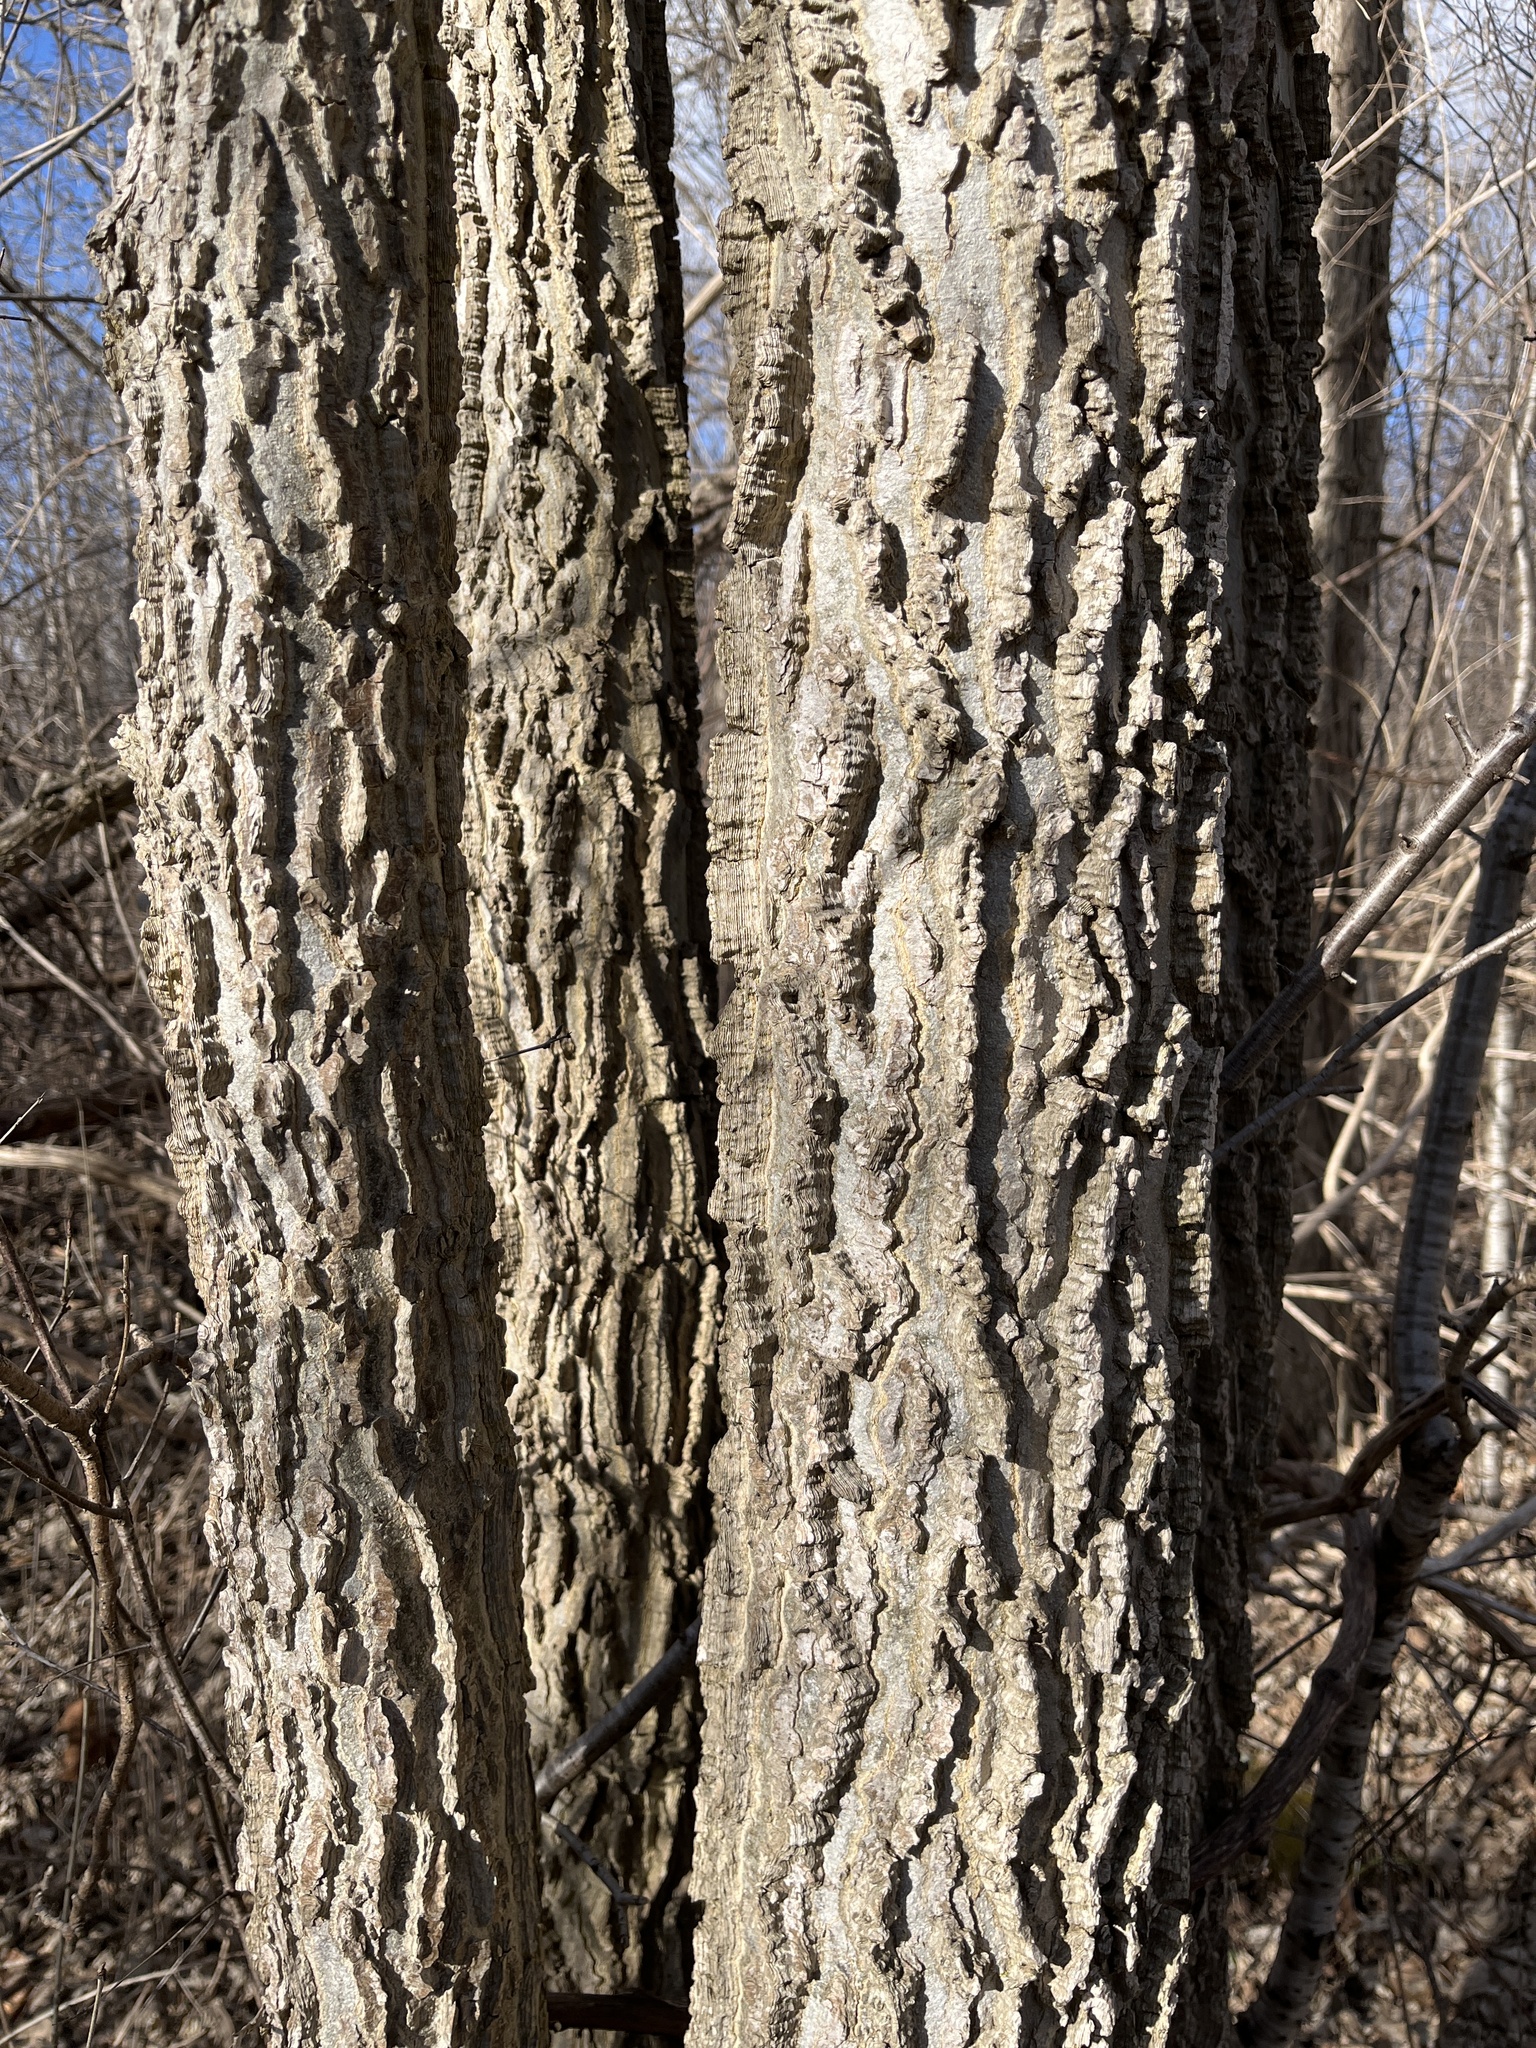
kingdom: Plantae
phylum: Tracheophyta
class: Magnoliopsida
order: Rosales
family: Cannabaceae
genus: Celtis
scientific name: Celtis occidentalis
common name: Common hackberry
